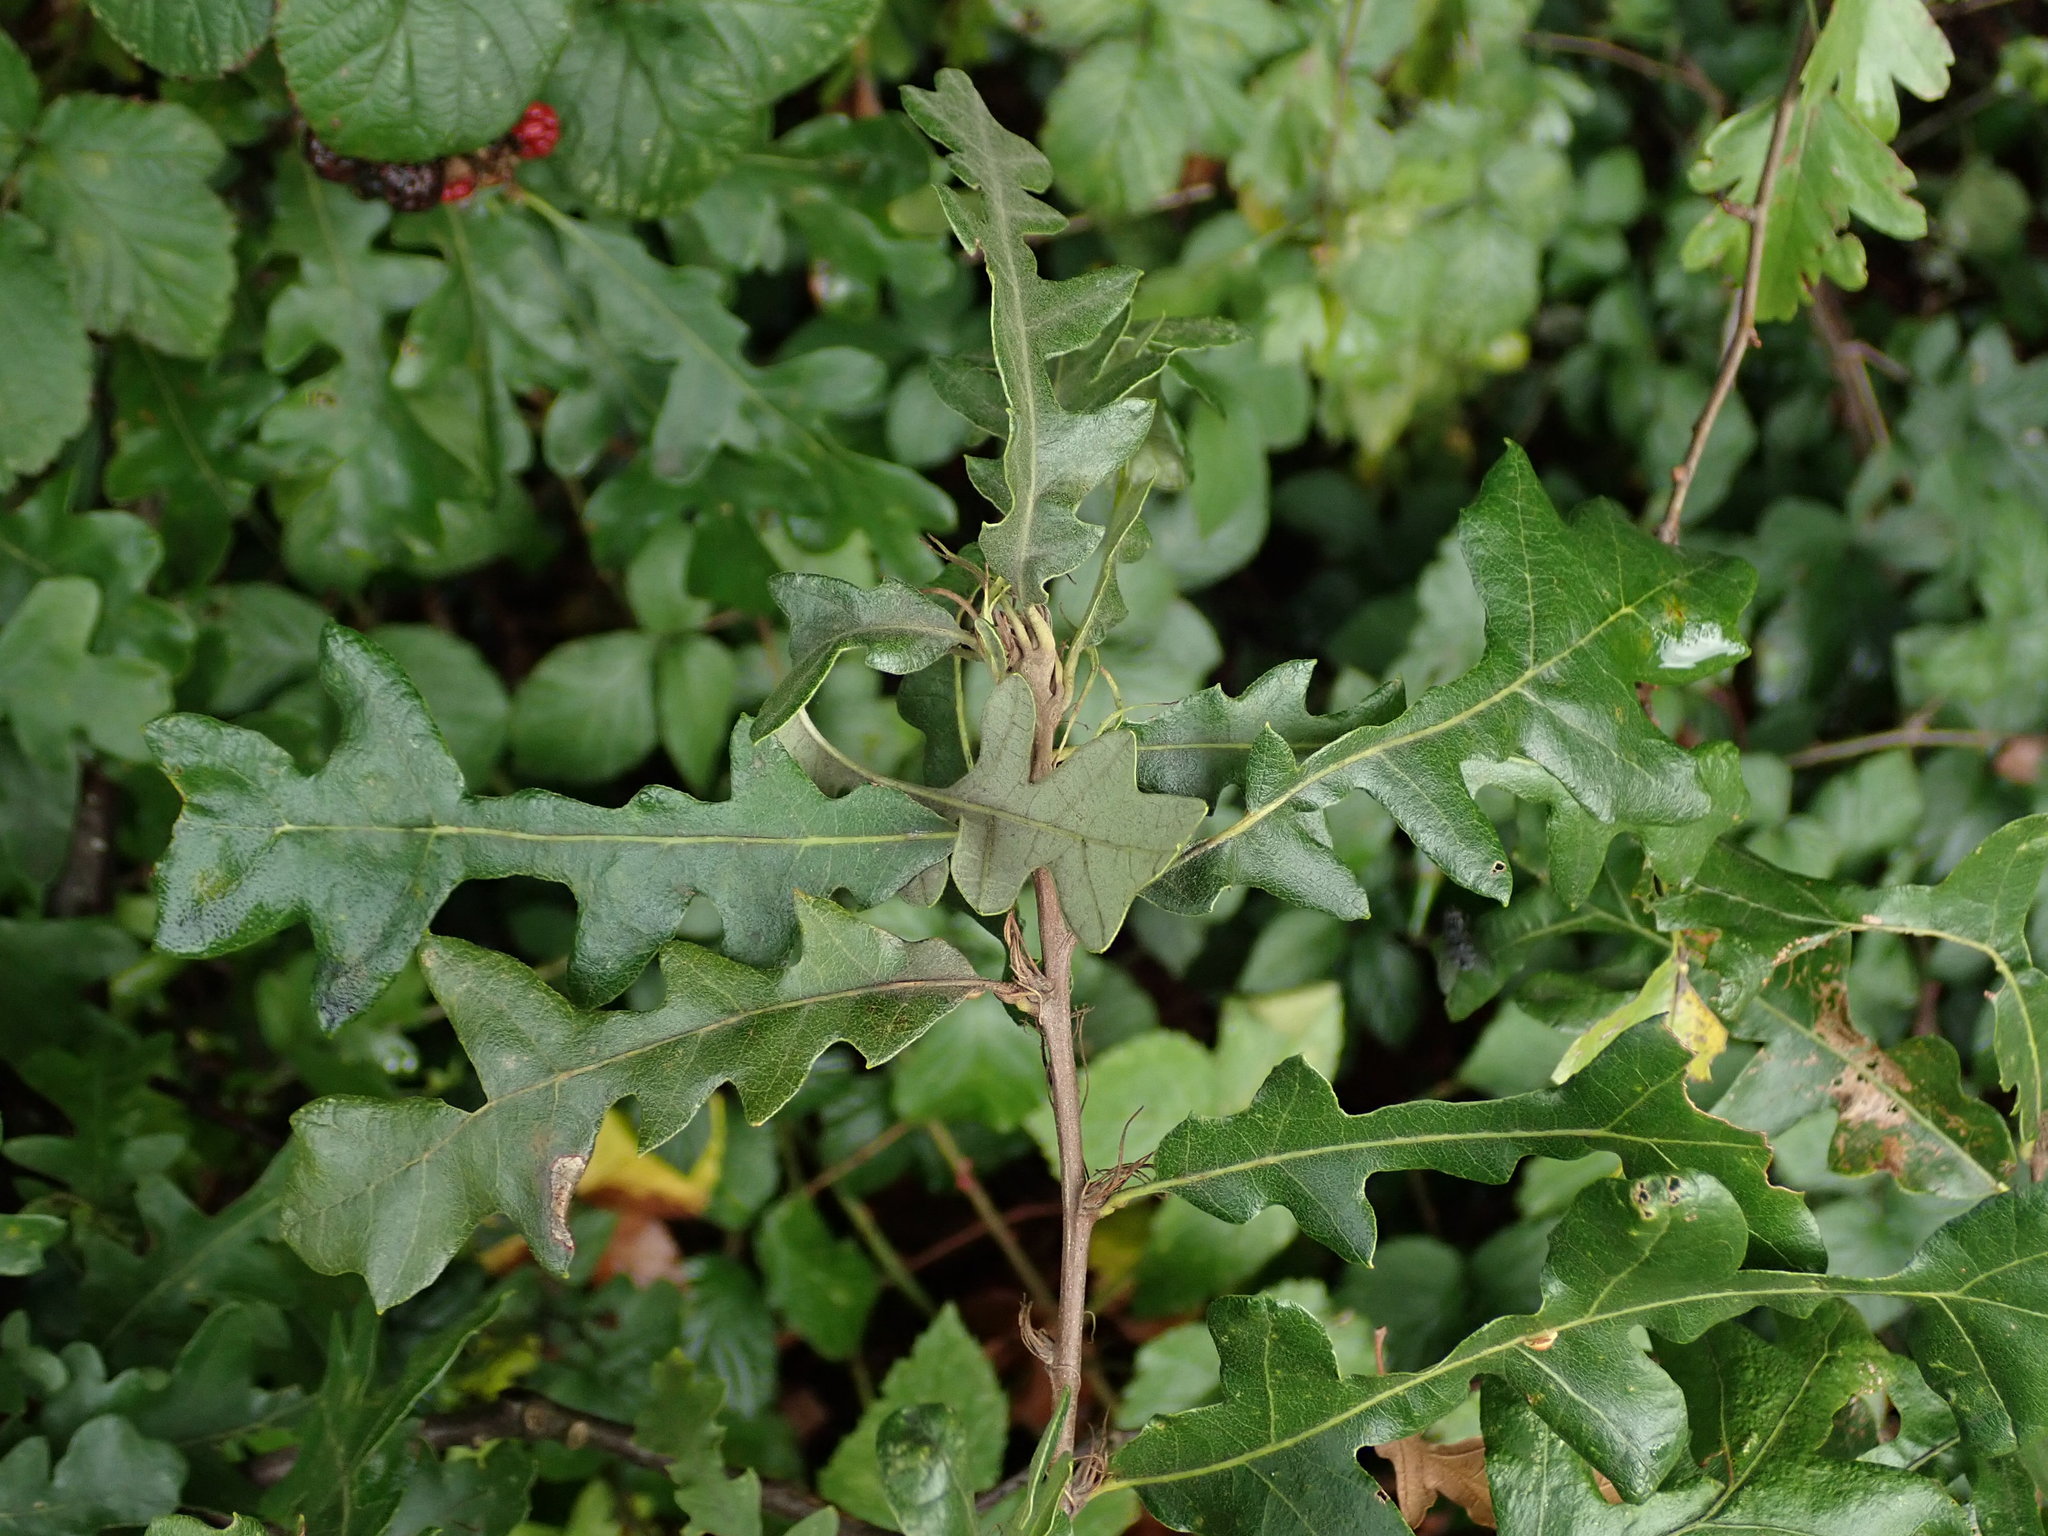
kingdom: Plantae
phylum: Tracheophyta
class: Magnoliopsida
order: Fagales
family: Fagaceae
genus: Quercus
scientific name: Quercus cerris
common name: Turkey oak
